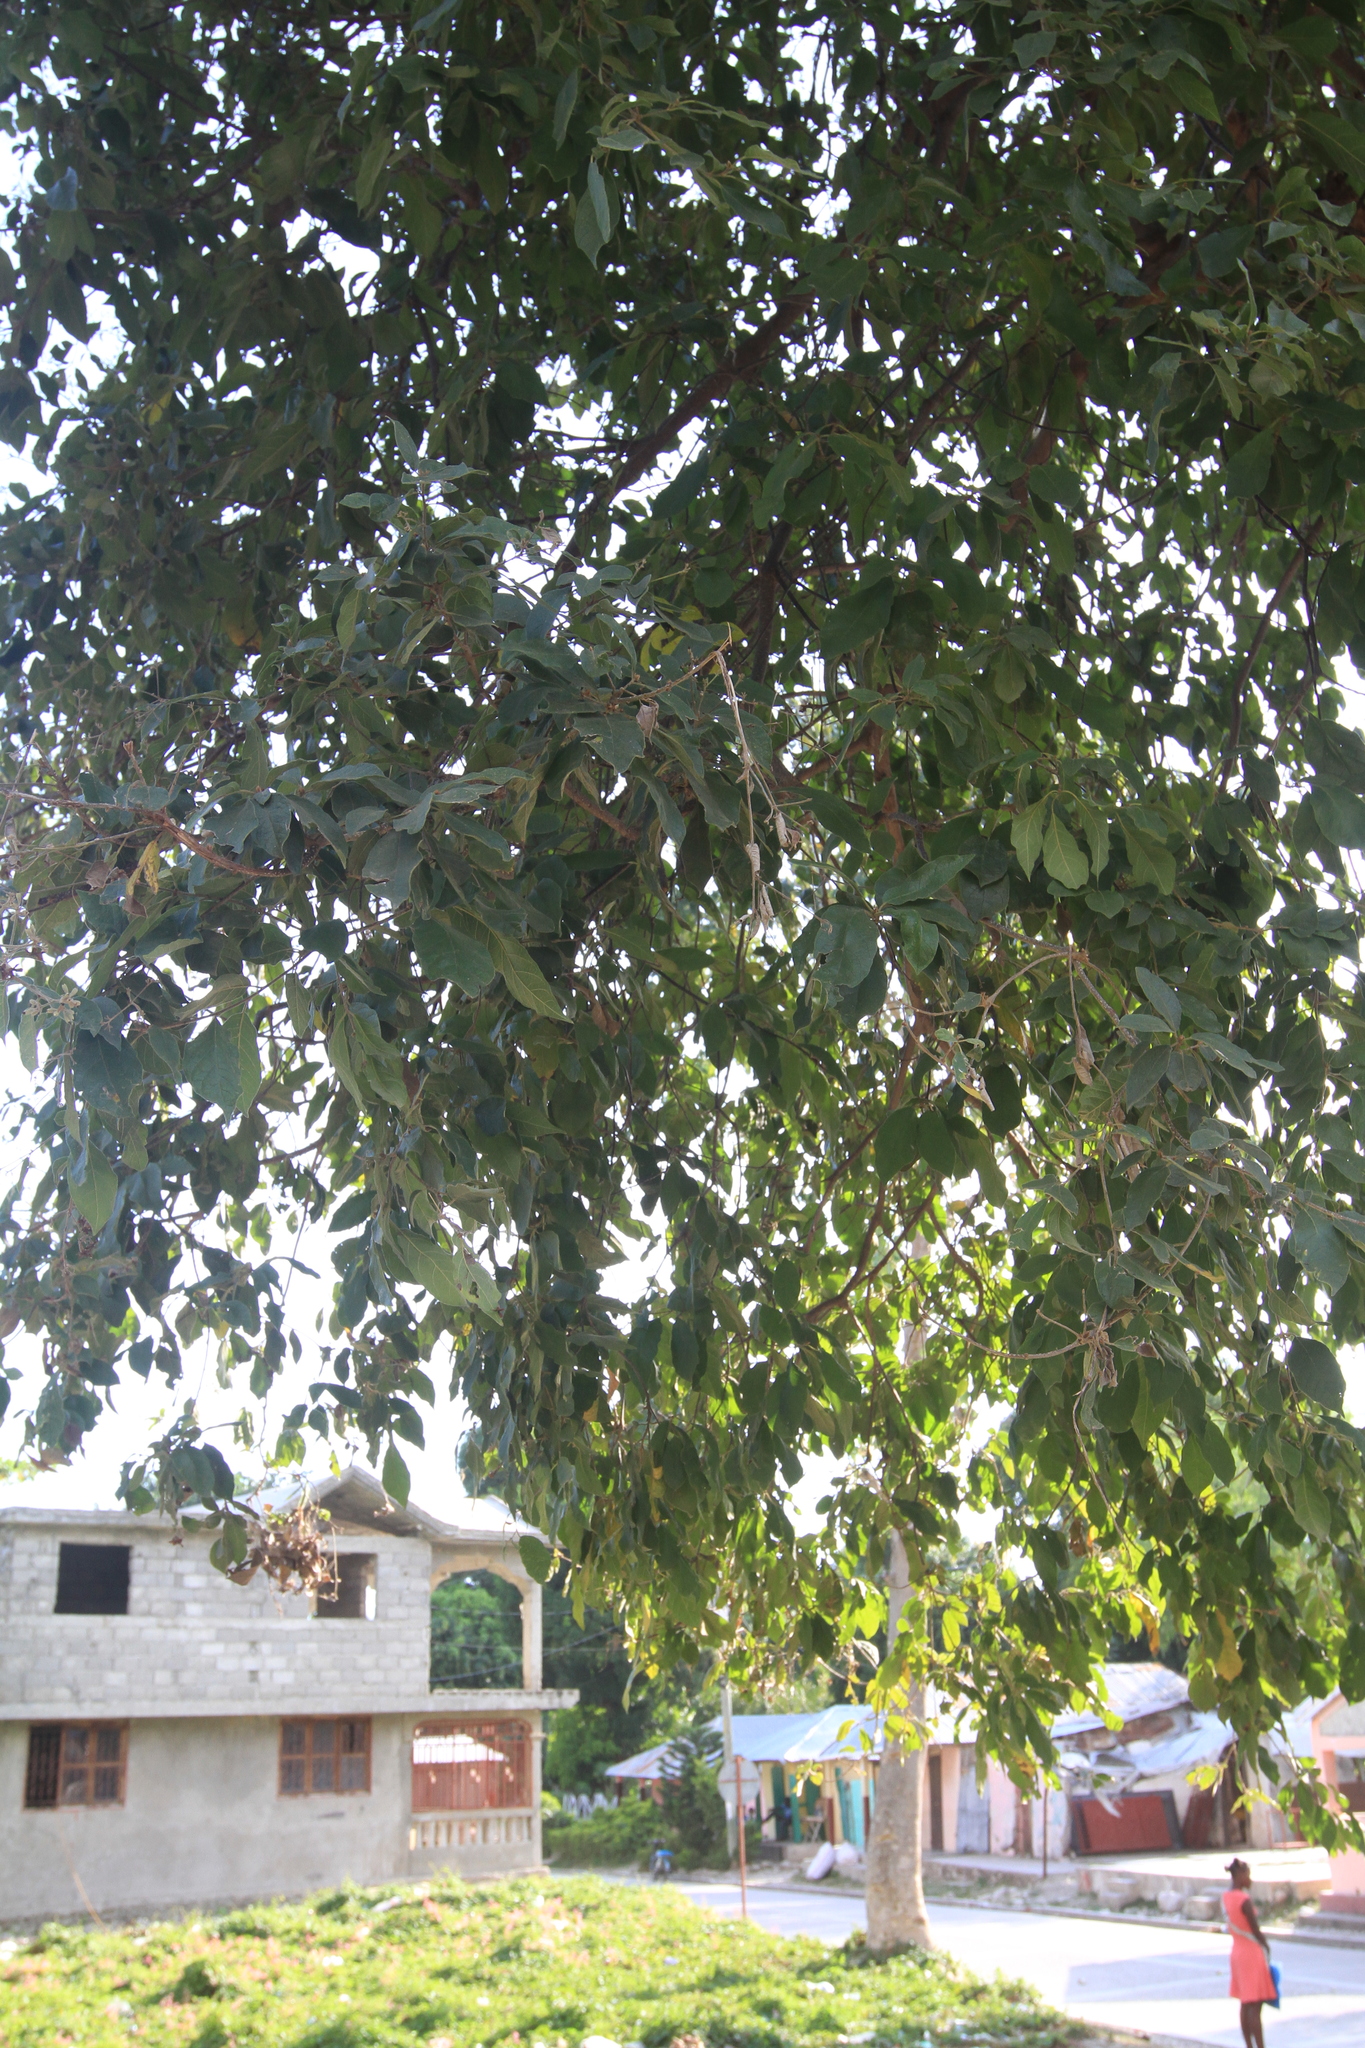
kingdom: Plantae
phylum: Tracheophyta
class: Magnoliopsida
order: Boraginales
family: Cordiaceae
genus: Cordia
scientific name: Cordia alliodora
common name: Spanish elm
